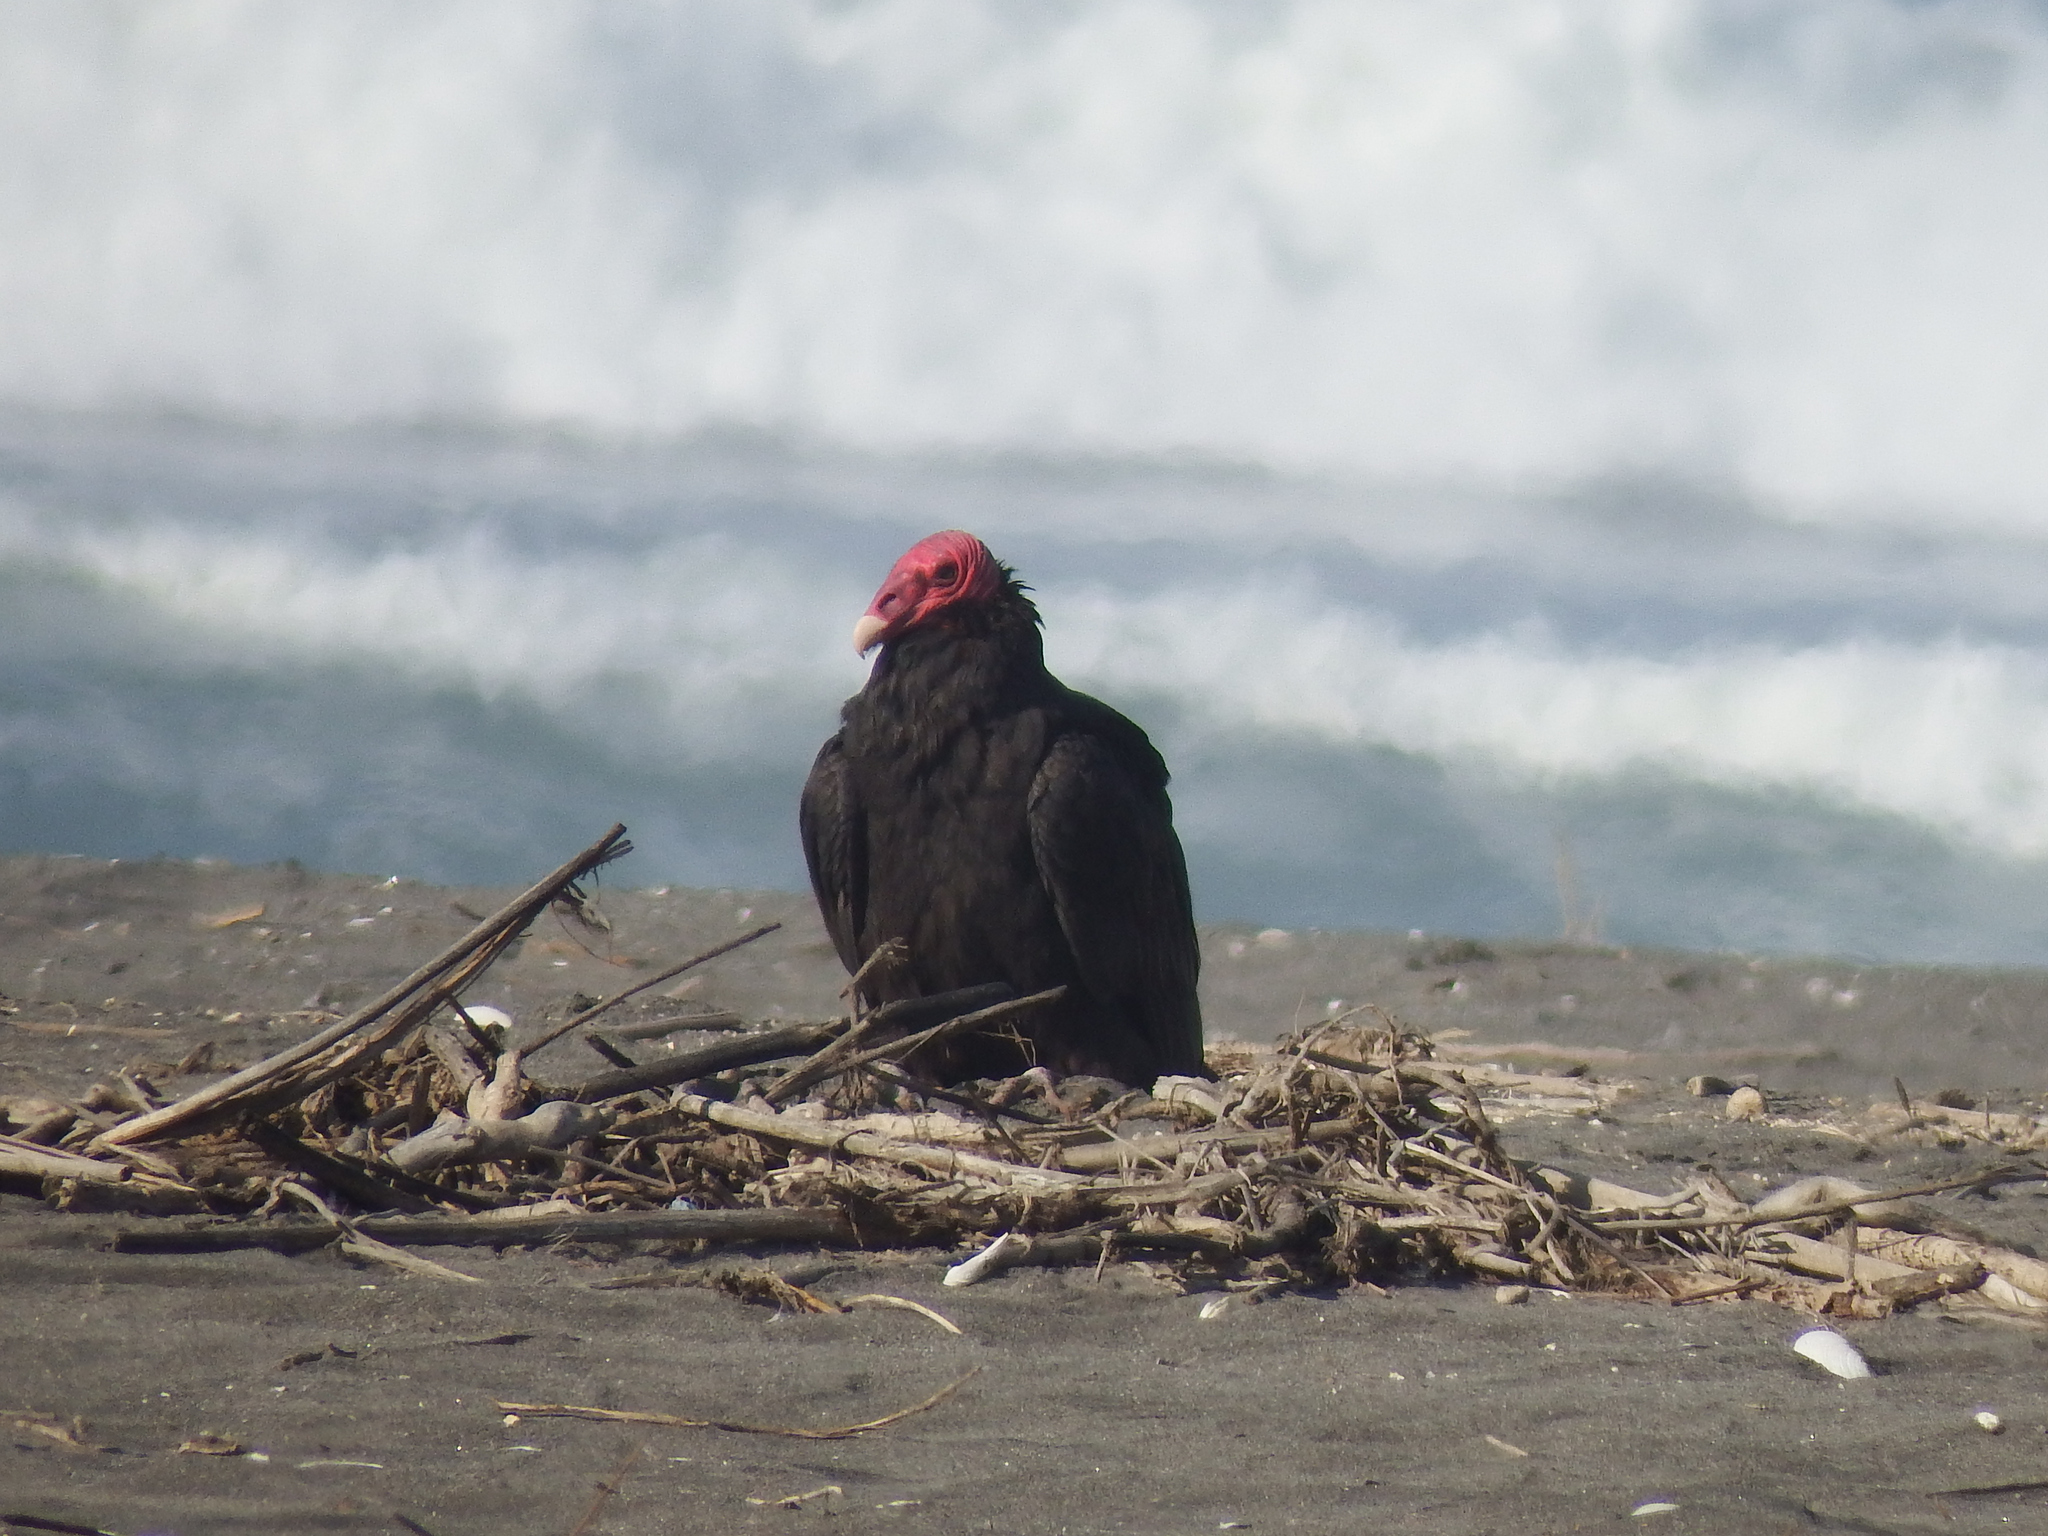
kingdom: Animalia
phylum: Chordata
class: Aves
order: Accipitriformes
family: Cathartidae
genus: Cathartes
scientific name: Cathartes aura
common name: Turkey vulture
